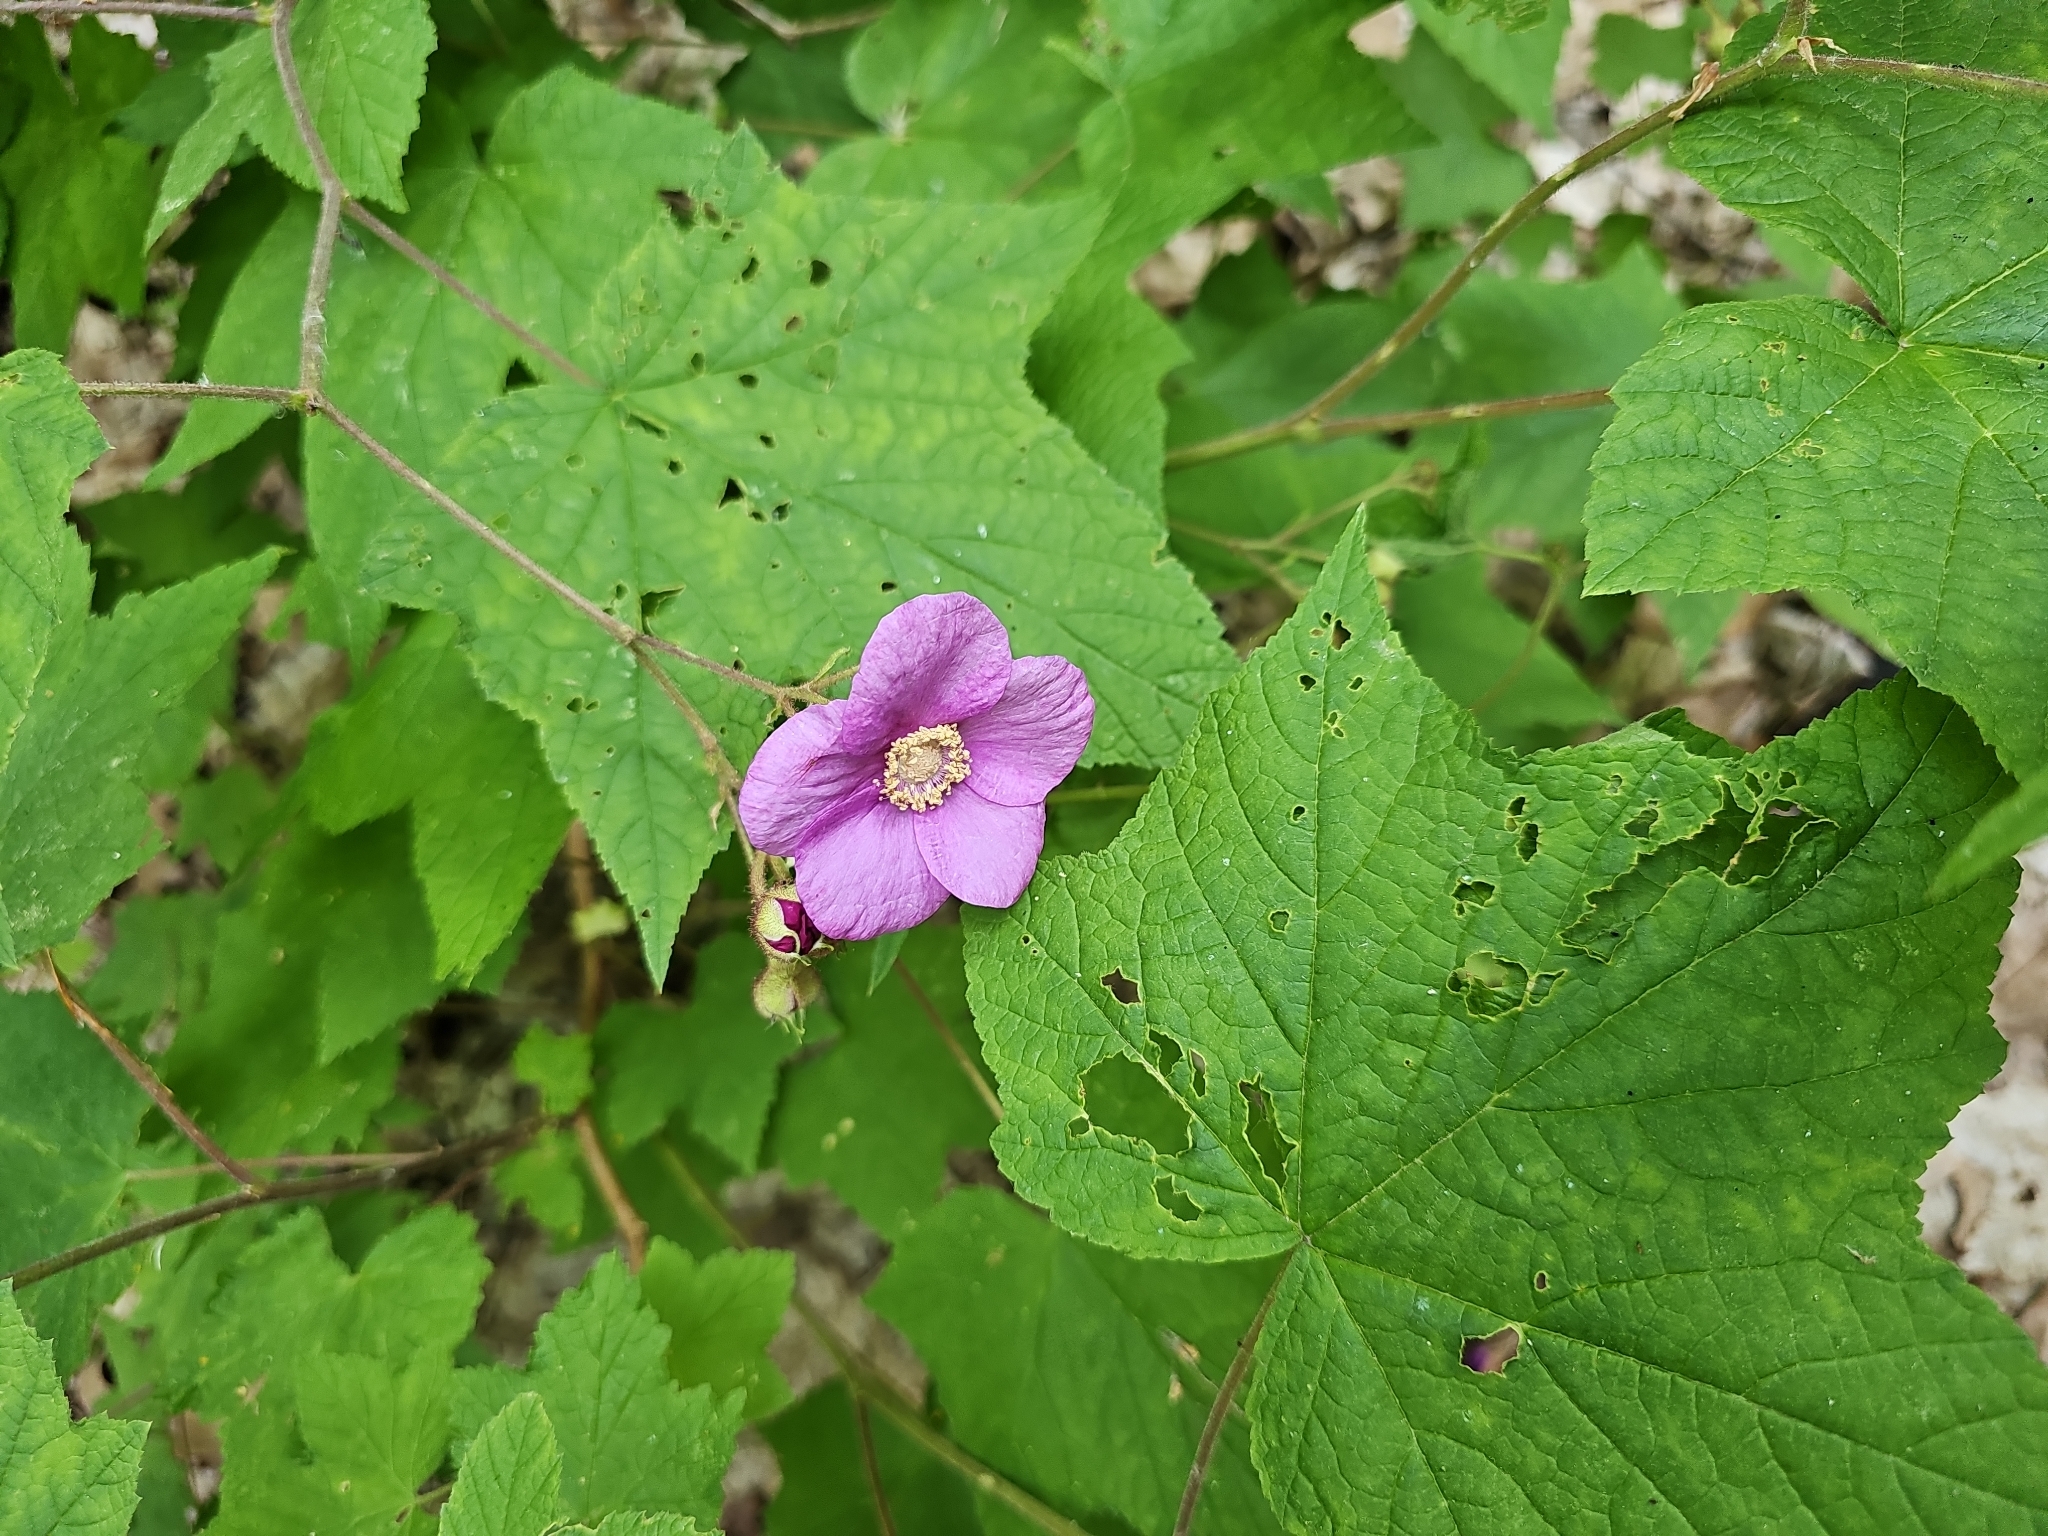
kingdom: Plantae
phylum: Tracheophyta
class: Magnoliopsida
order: Rosales
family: Rosaceae
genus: Rubus
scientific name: Rubus odoratus
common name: Purple-flowered raspberry
